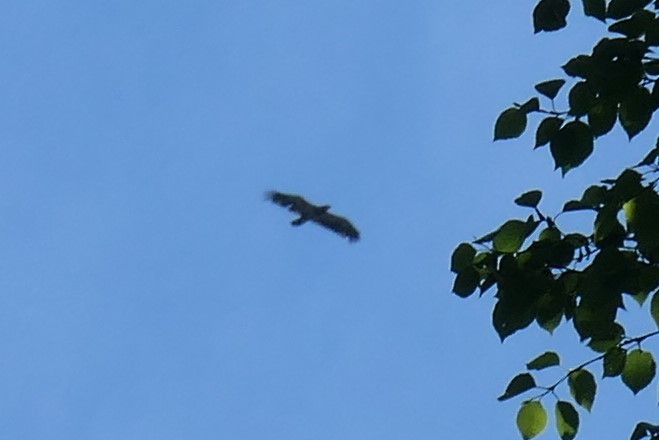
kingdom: Animalia
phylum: Chordata
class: Aves
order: Accipitriformes
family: Accipitridae
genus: Haliaeetus
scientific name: Haliaeetus leucocephalus
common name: Bald eagle
